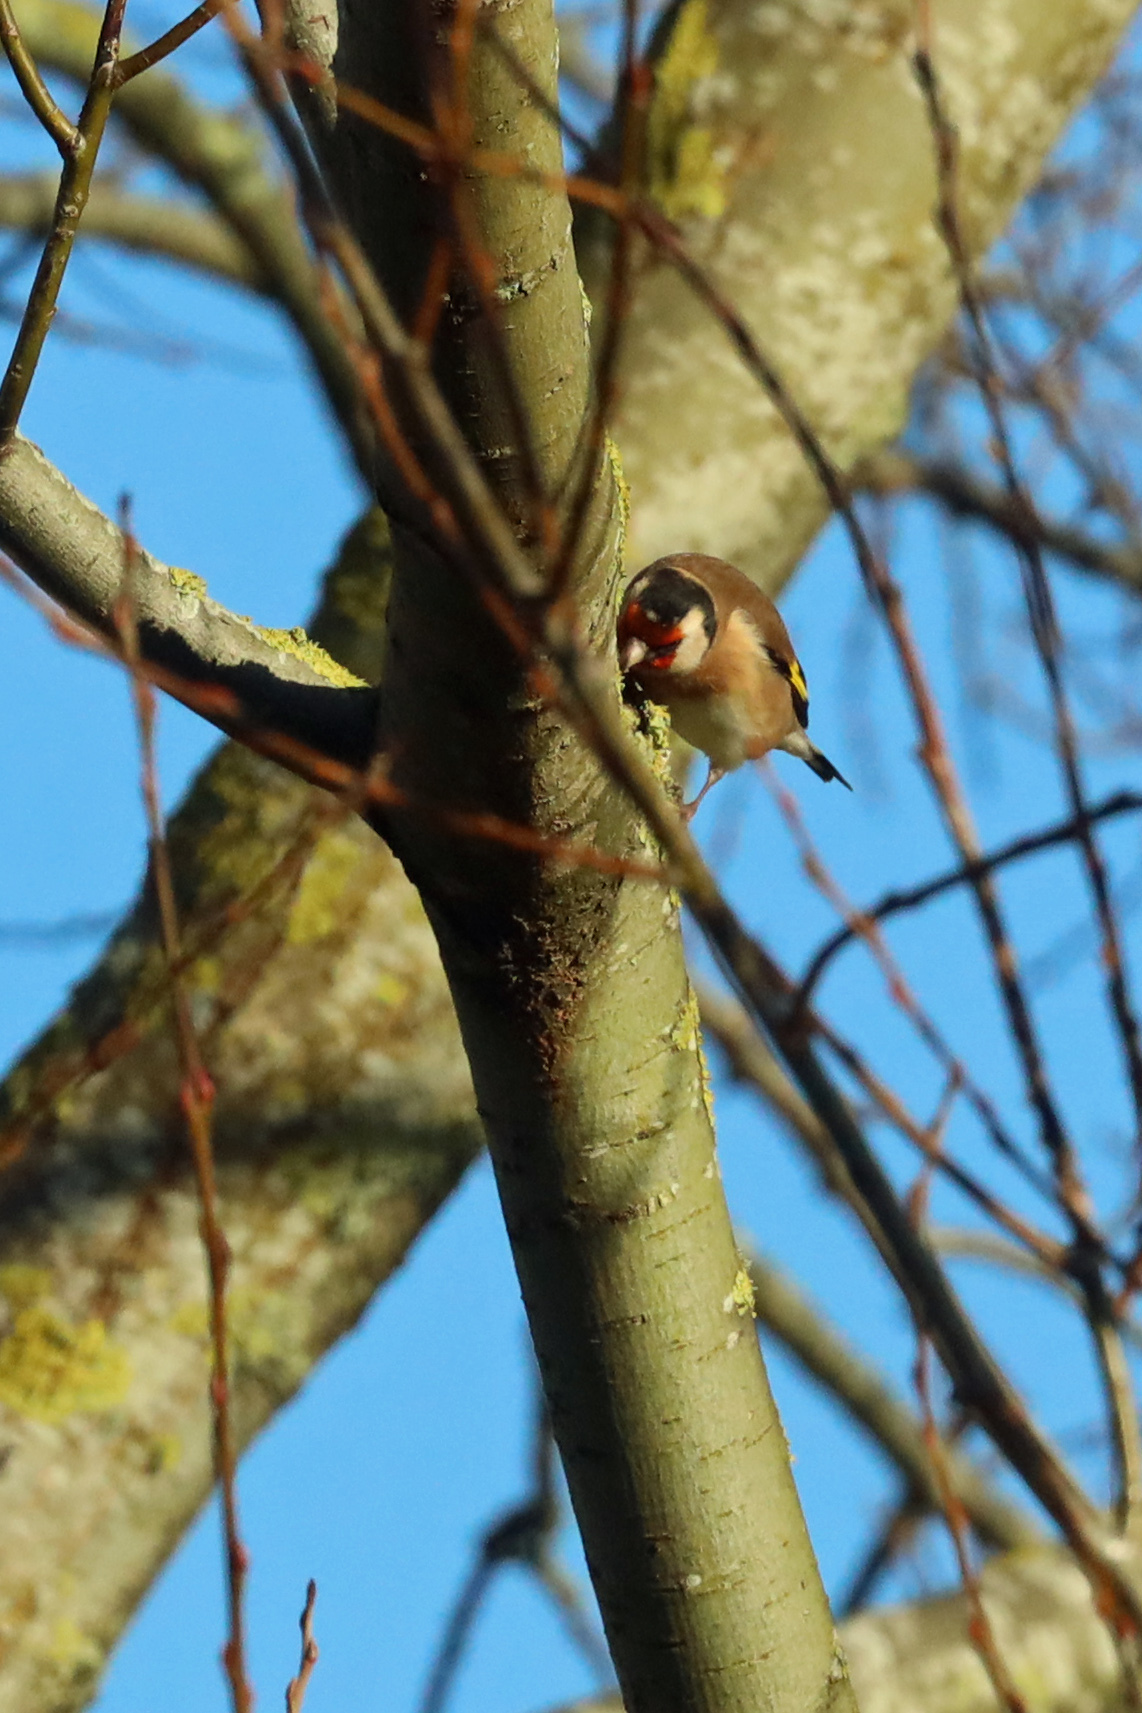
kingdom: Animalia
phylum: Chordata
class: Aves
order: Passeriformes
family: Fringillidae
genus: Carduelis
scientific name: Carduelis carduelis
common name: European goldfinch
